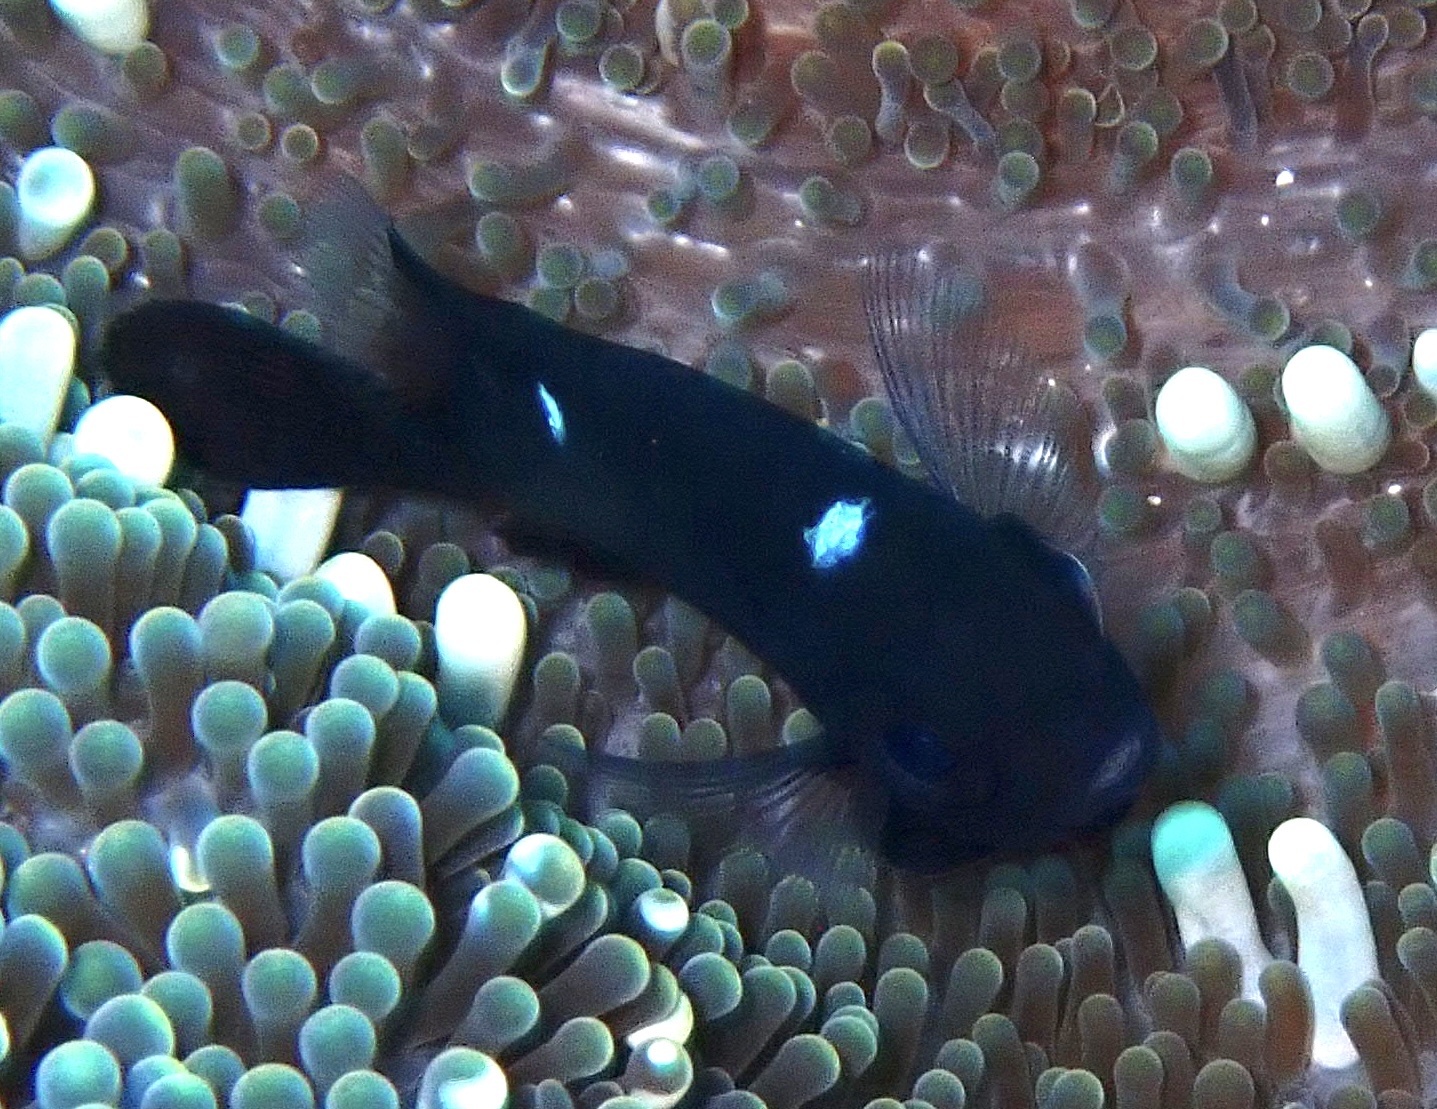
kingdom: Animalia
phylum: Chordata
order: Perciformes
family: Pomacentridae
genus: Dascyllus
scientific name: Dascyllus trimaculatus
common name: Threespot dascyllus
